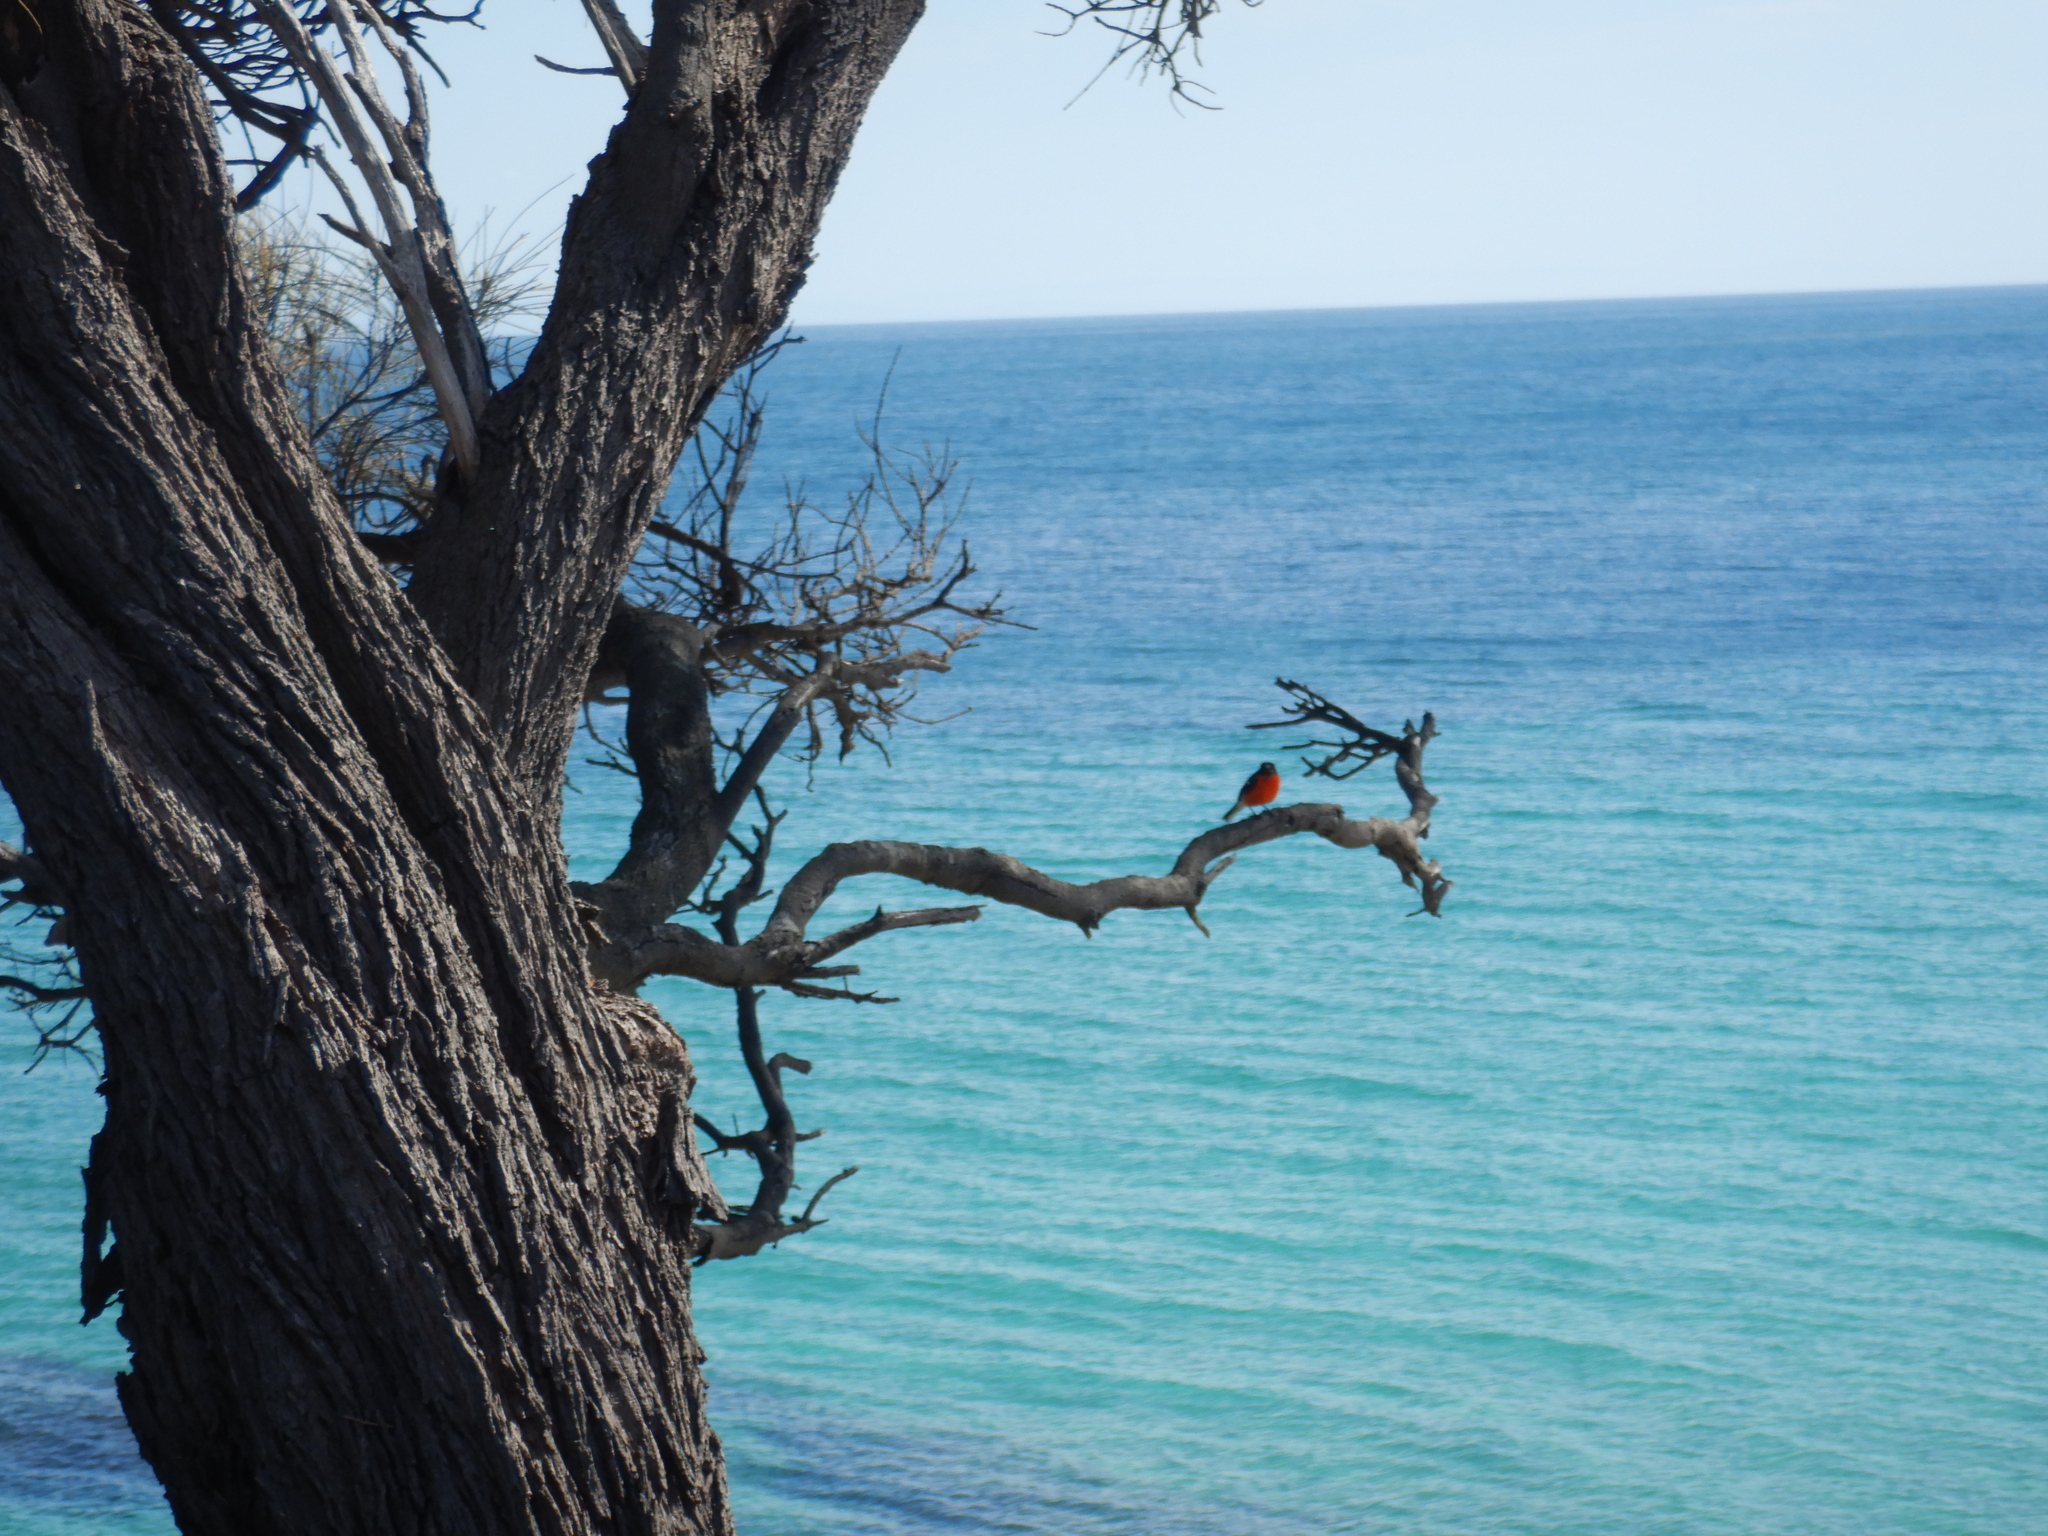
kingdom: Animalia
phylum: Chordata
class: Aves
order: Passeriformes
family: Petroicidae
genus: Petroica
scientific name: Petroica phoenicea
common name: Flame robin
